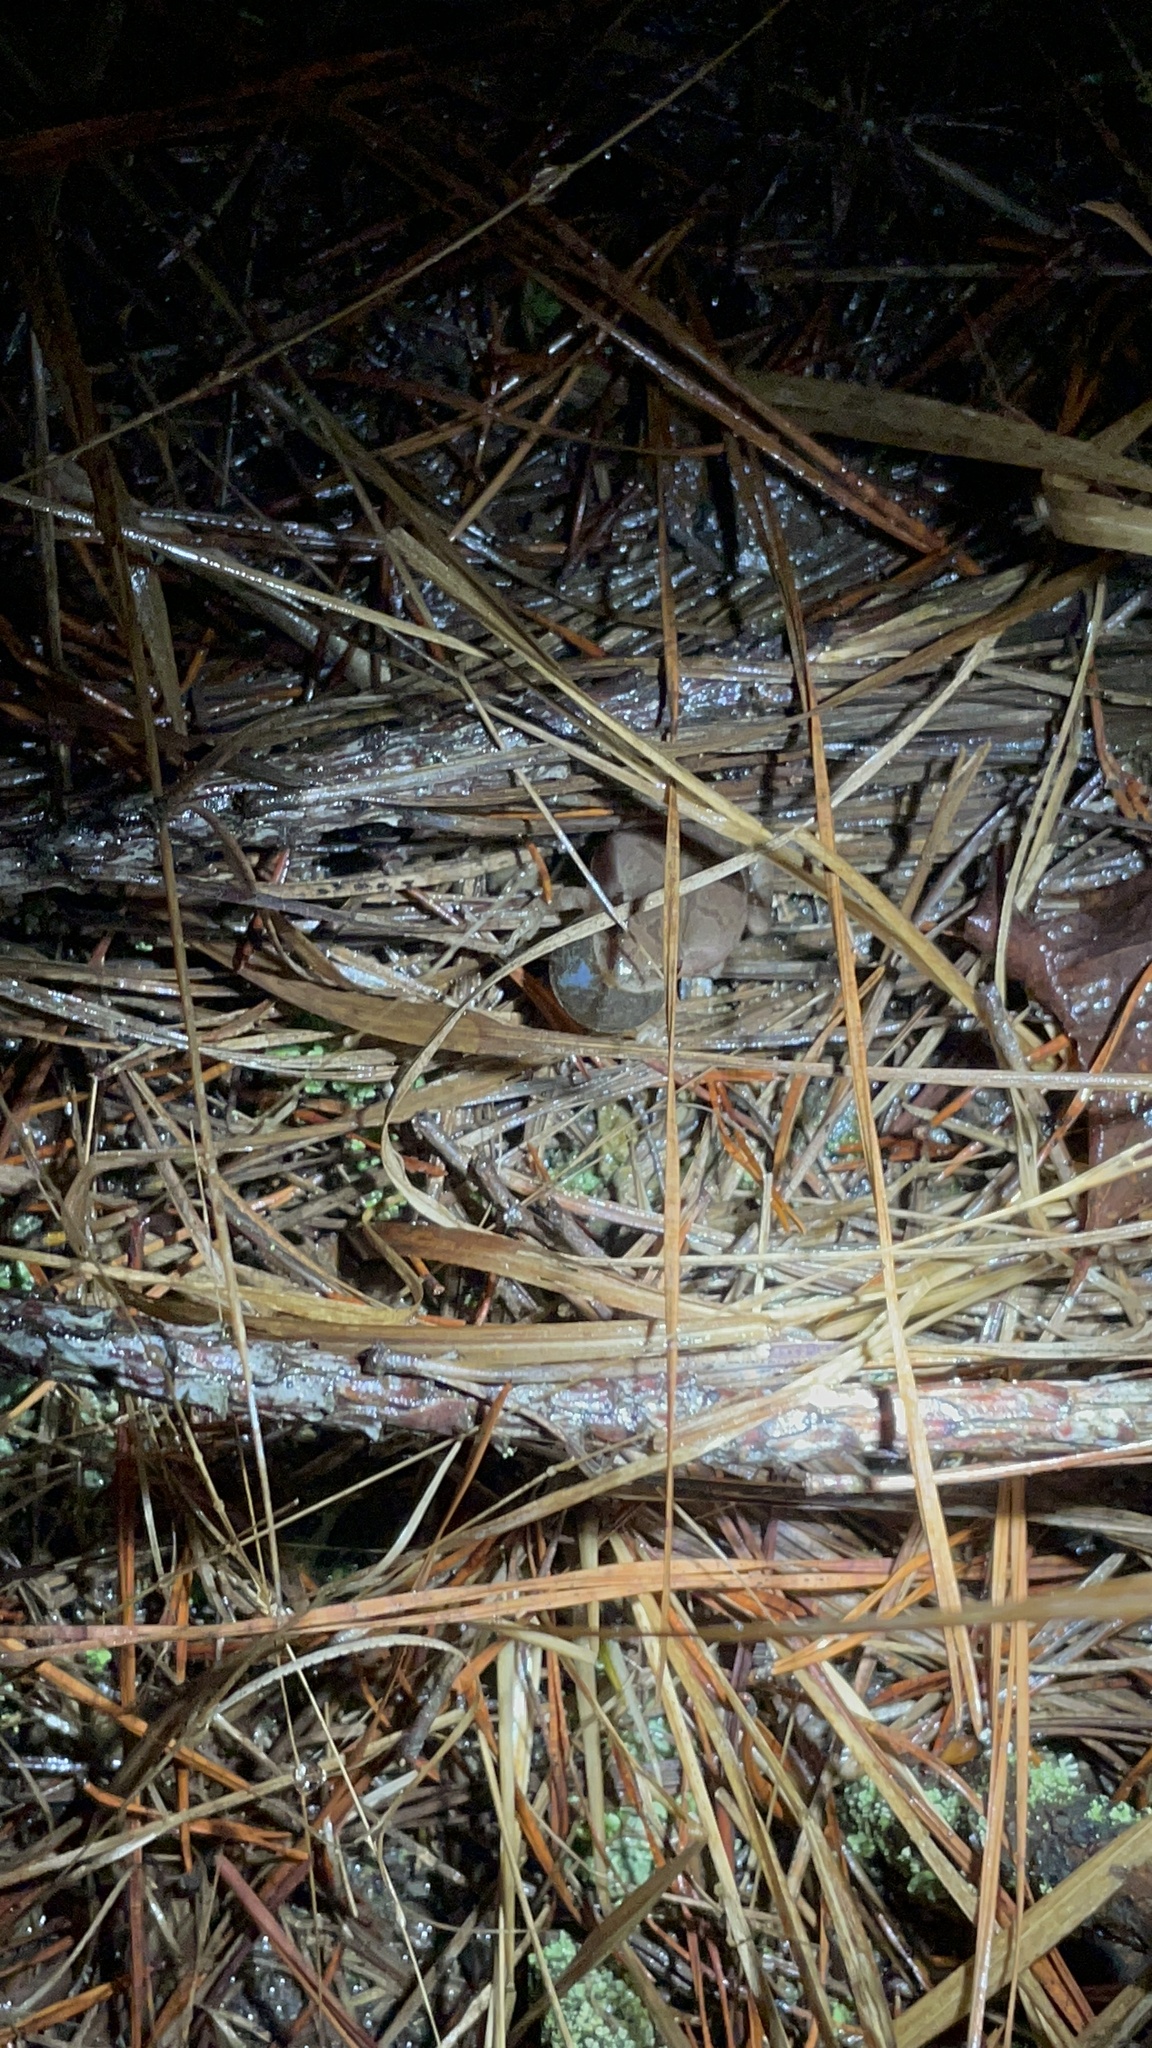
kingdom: Animalia
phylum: Chordata
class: Amphibia
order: Anura
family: Hylidae
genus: Pseudacris
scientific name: Pseudacris crucifer
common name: Spring peeper
